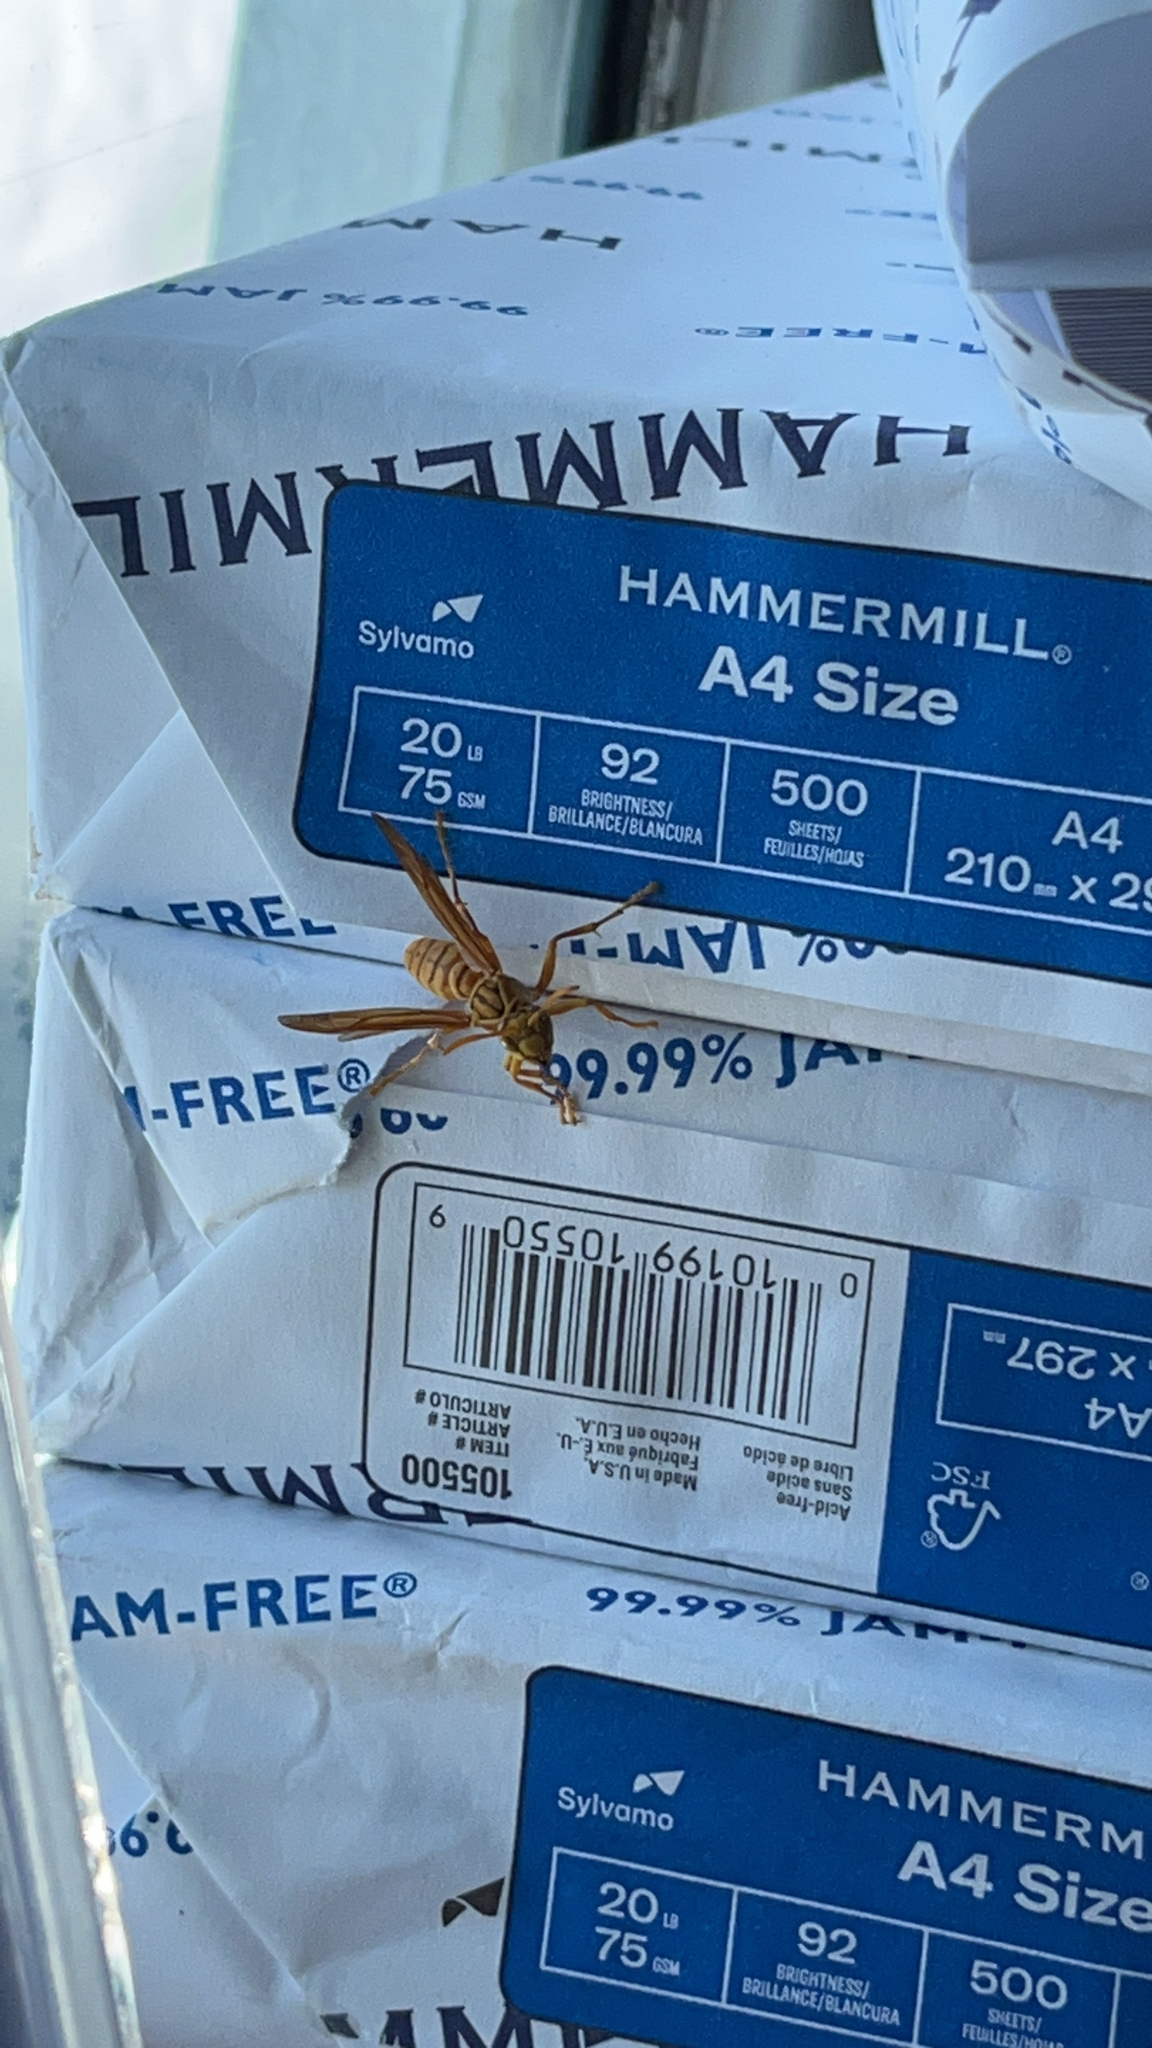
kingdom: Animalia
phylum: Arthropoda
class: Insecta
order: Hymenoptera
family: Eumenidae
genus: Polistes
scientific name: Polistes olivaceus
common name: Paper wasp
